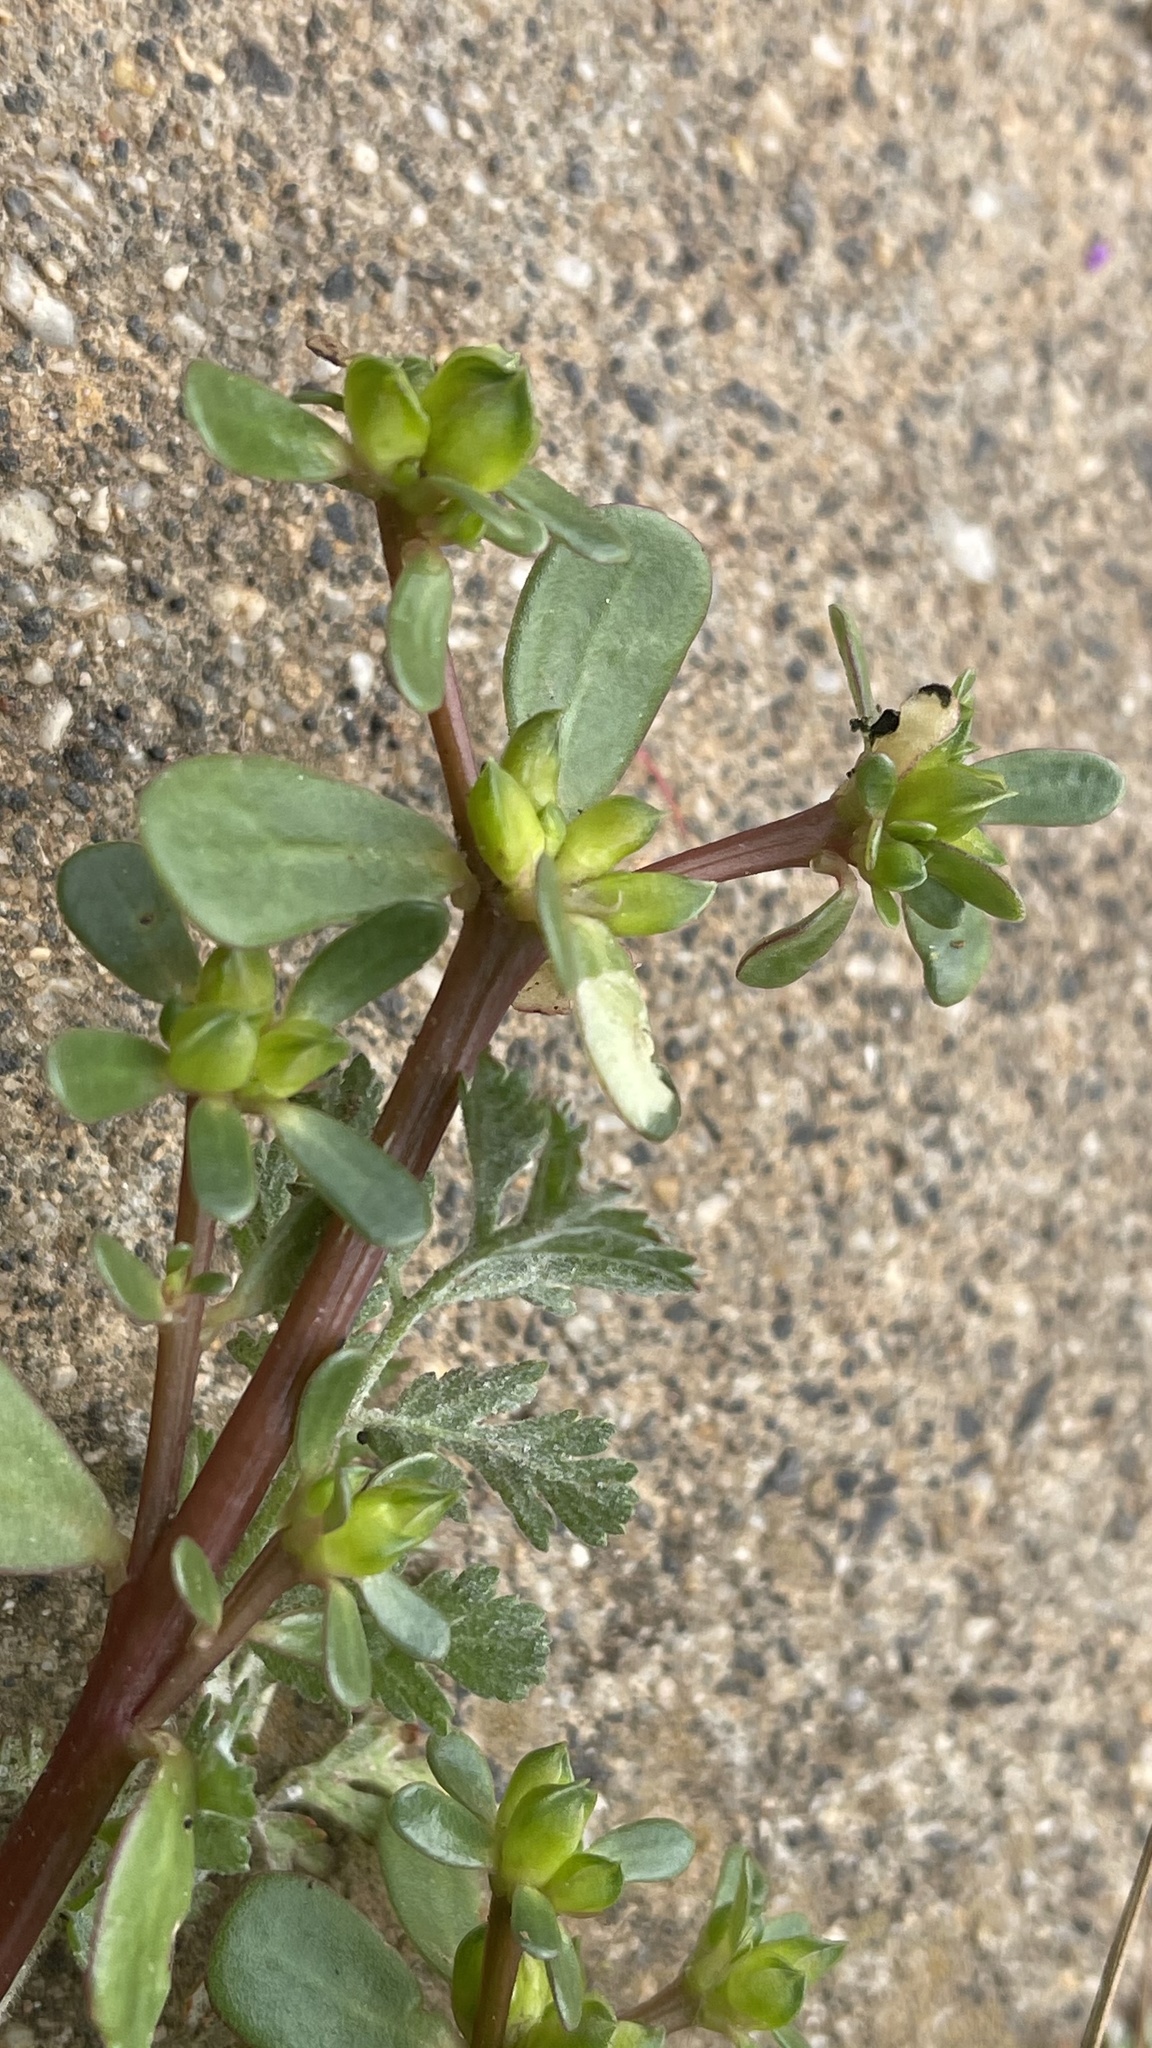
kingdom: Plantae
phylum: Tracheophyta
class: Magnoliopsida
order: Caryophyllales
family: Portulacaceae
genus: Portulaca
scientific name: Portulaca oleracea
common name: Common purslane
